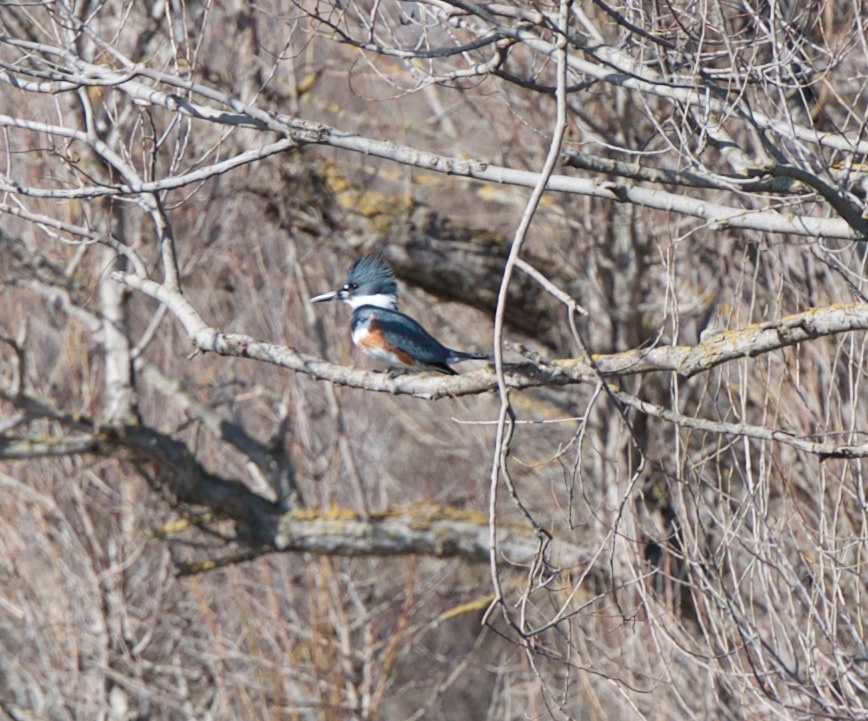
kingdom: Animalia
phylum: Chordata
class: Aves
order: Coraciiformes
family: Alcedinidae
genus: Megaceryle
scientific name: Megaceryle alcyon
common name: Belted kingfisher
